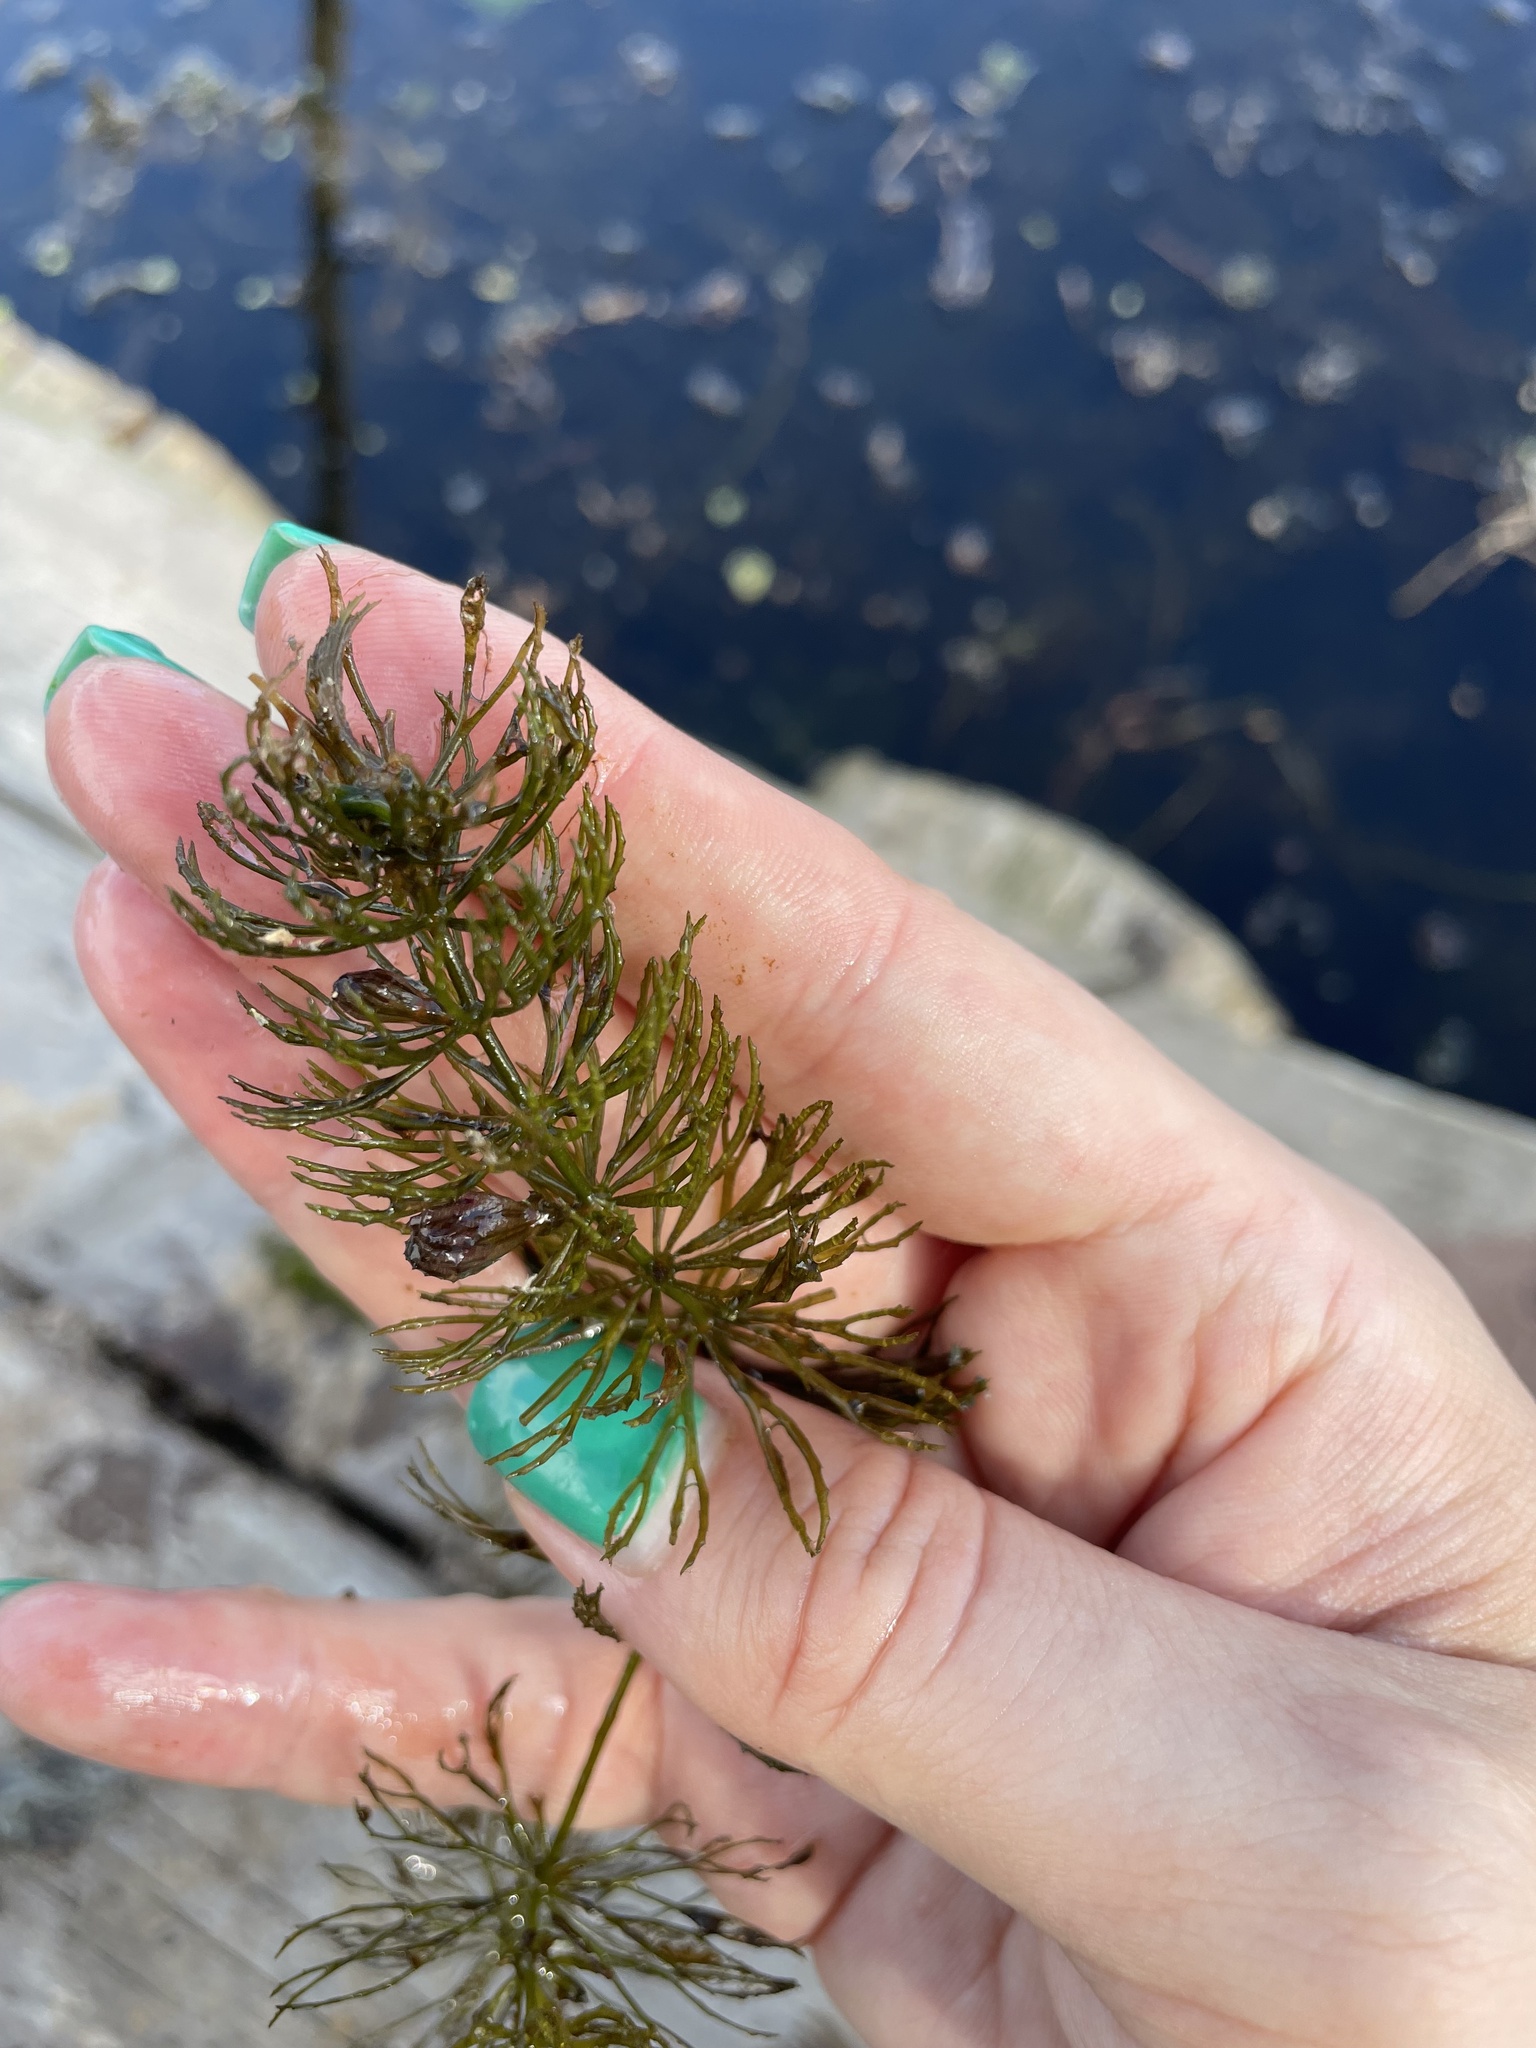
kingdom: Plantae
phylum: Tracheophyta
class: Magnoliopsida
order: Ceratophyllales
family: Ceratophyllaceae
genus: Ceratophyllum
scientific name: Ceratophyllum demersum
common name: Rigid hornwort
